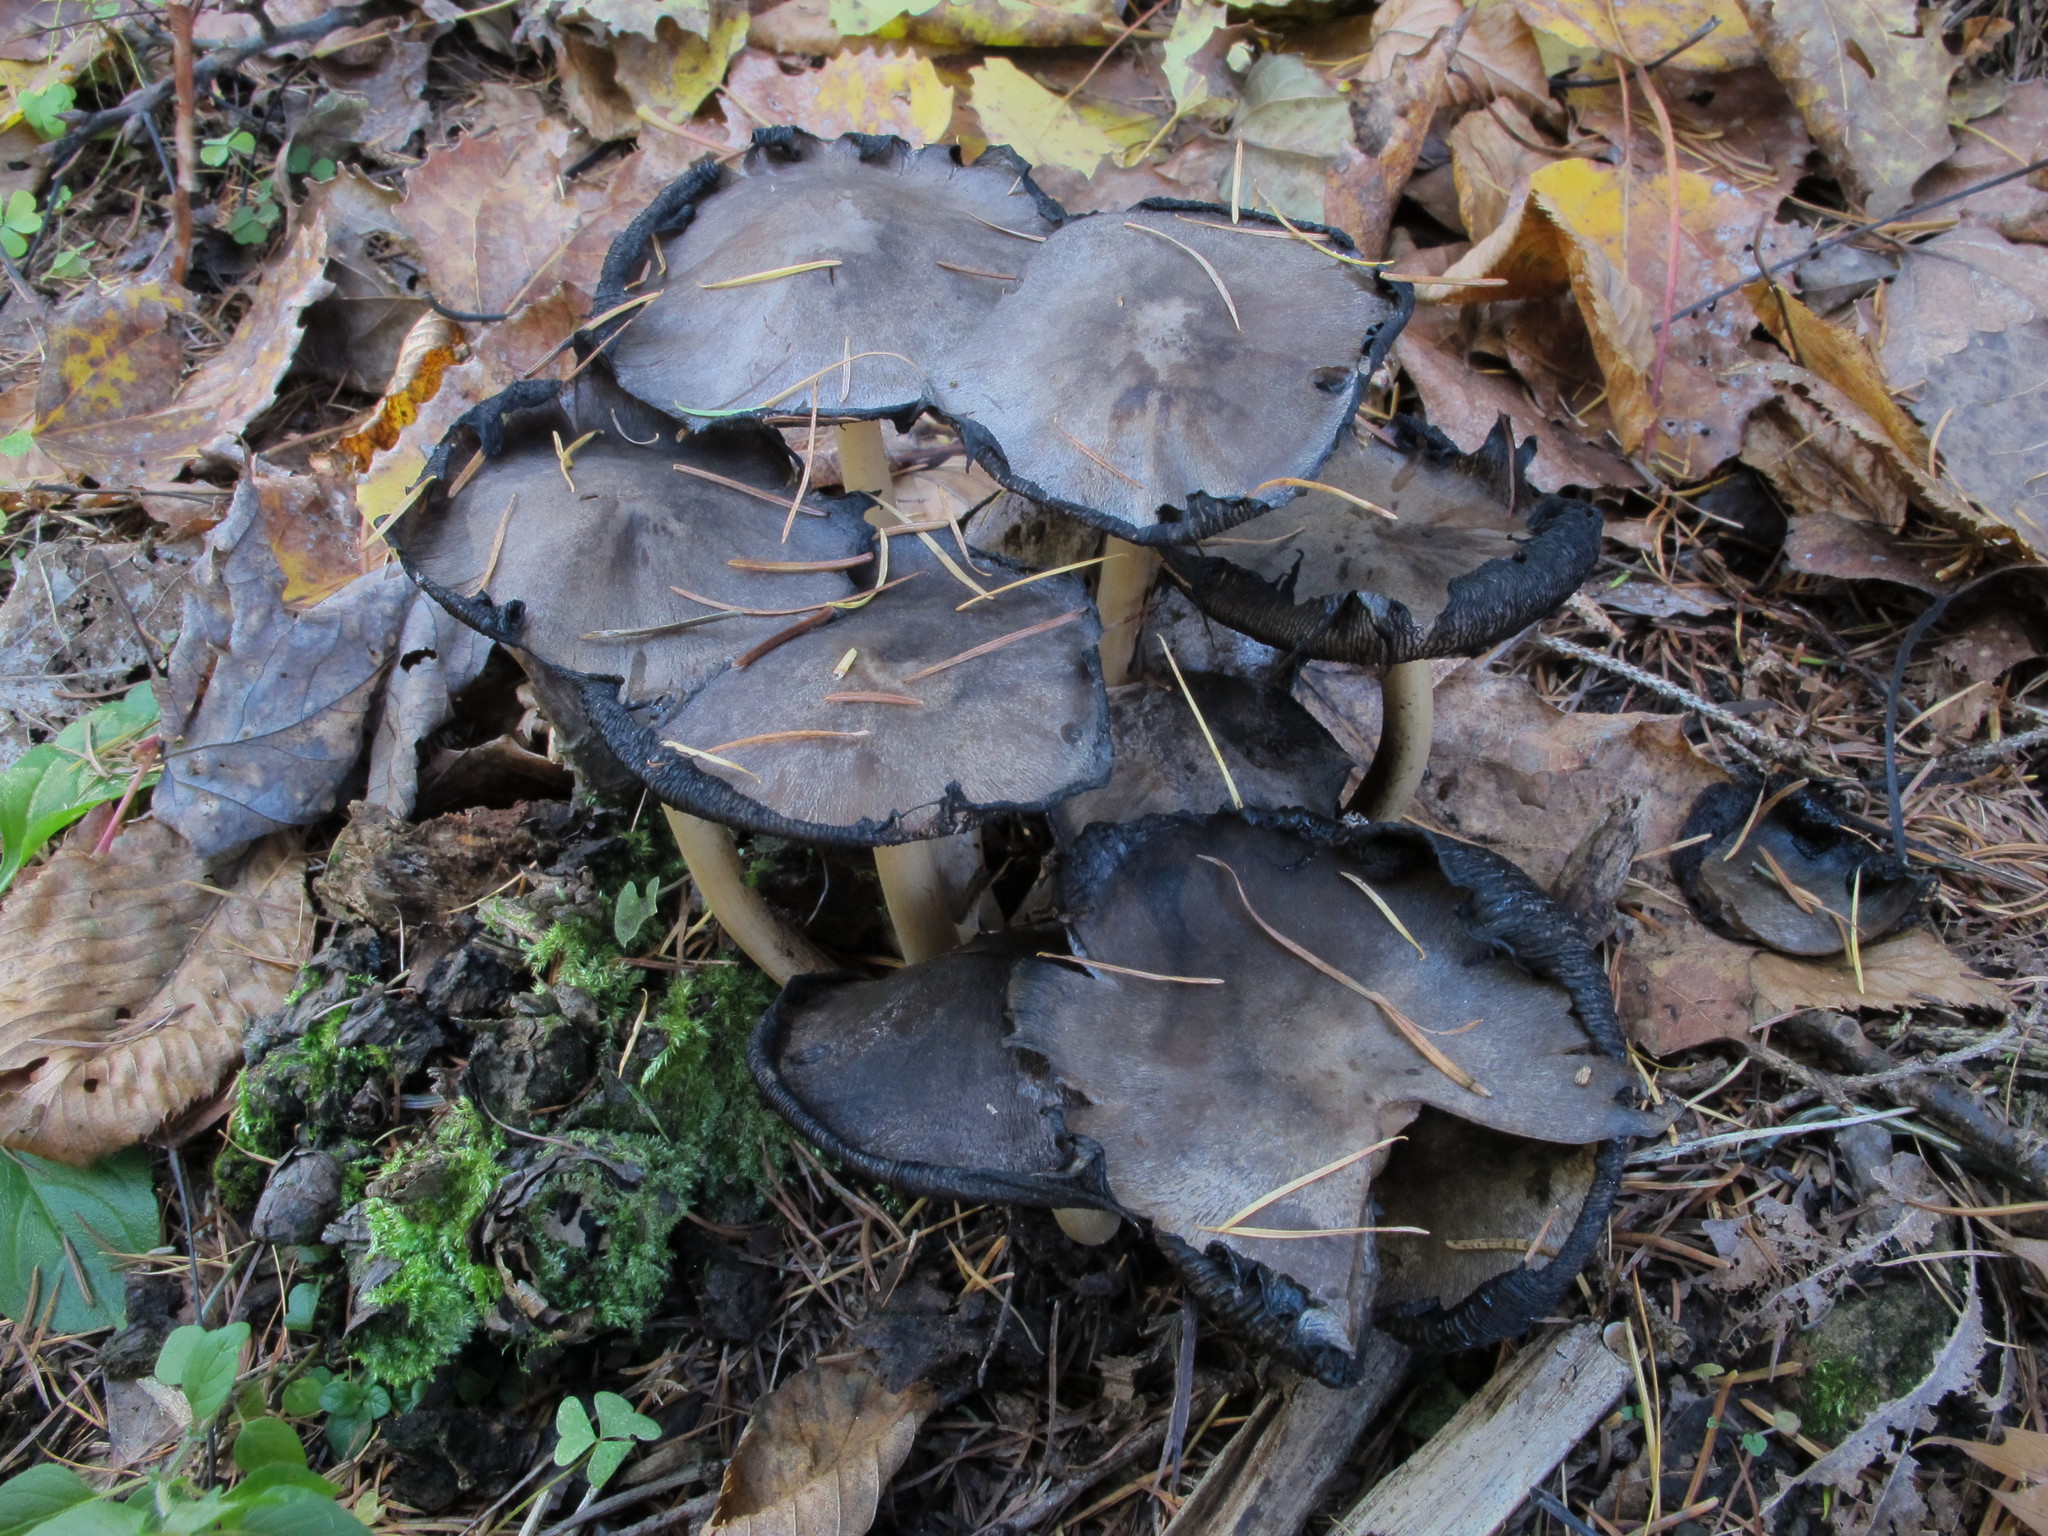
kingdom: Fungi
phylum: Basidiomycota
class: Agaricomycetes
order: Agaricales
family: Psathyrellaceae
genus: Coprinopsis
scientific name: Coprinopsis atramentaria
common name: Common ink-cap
